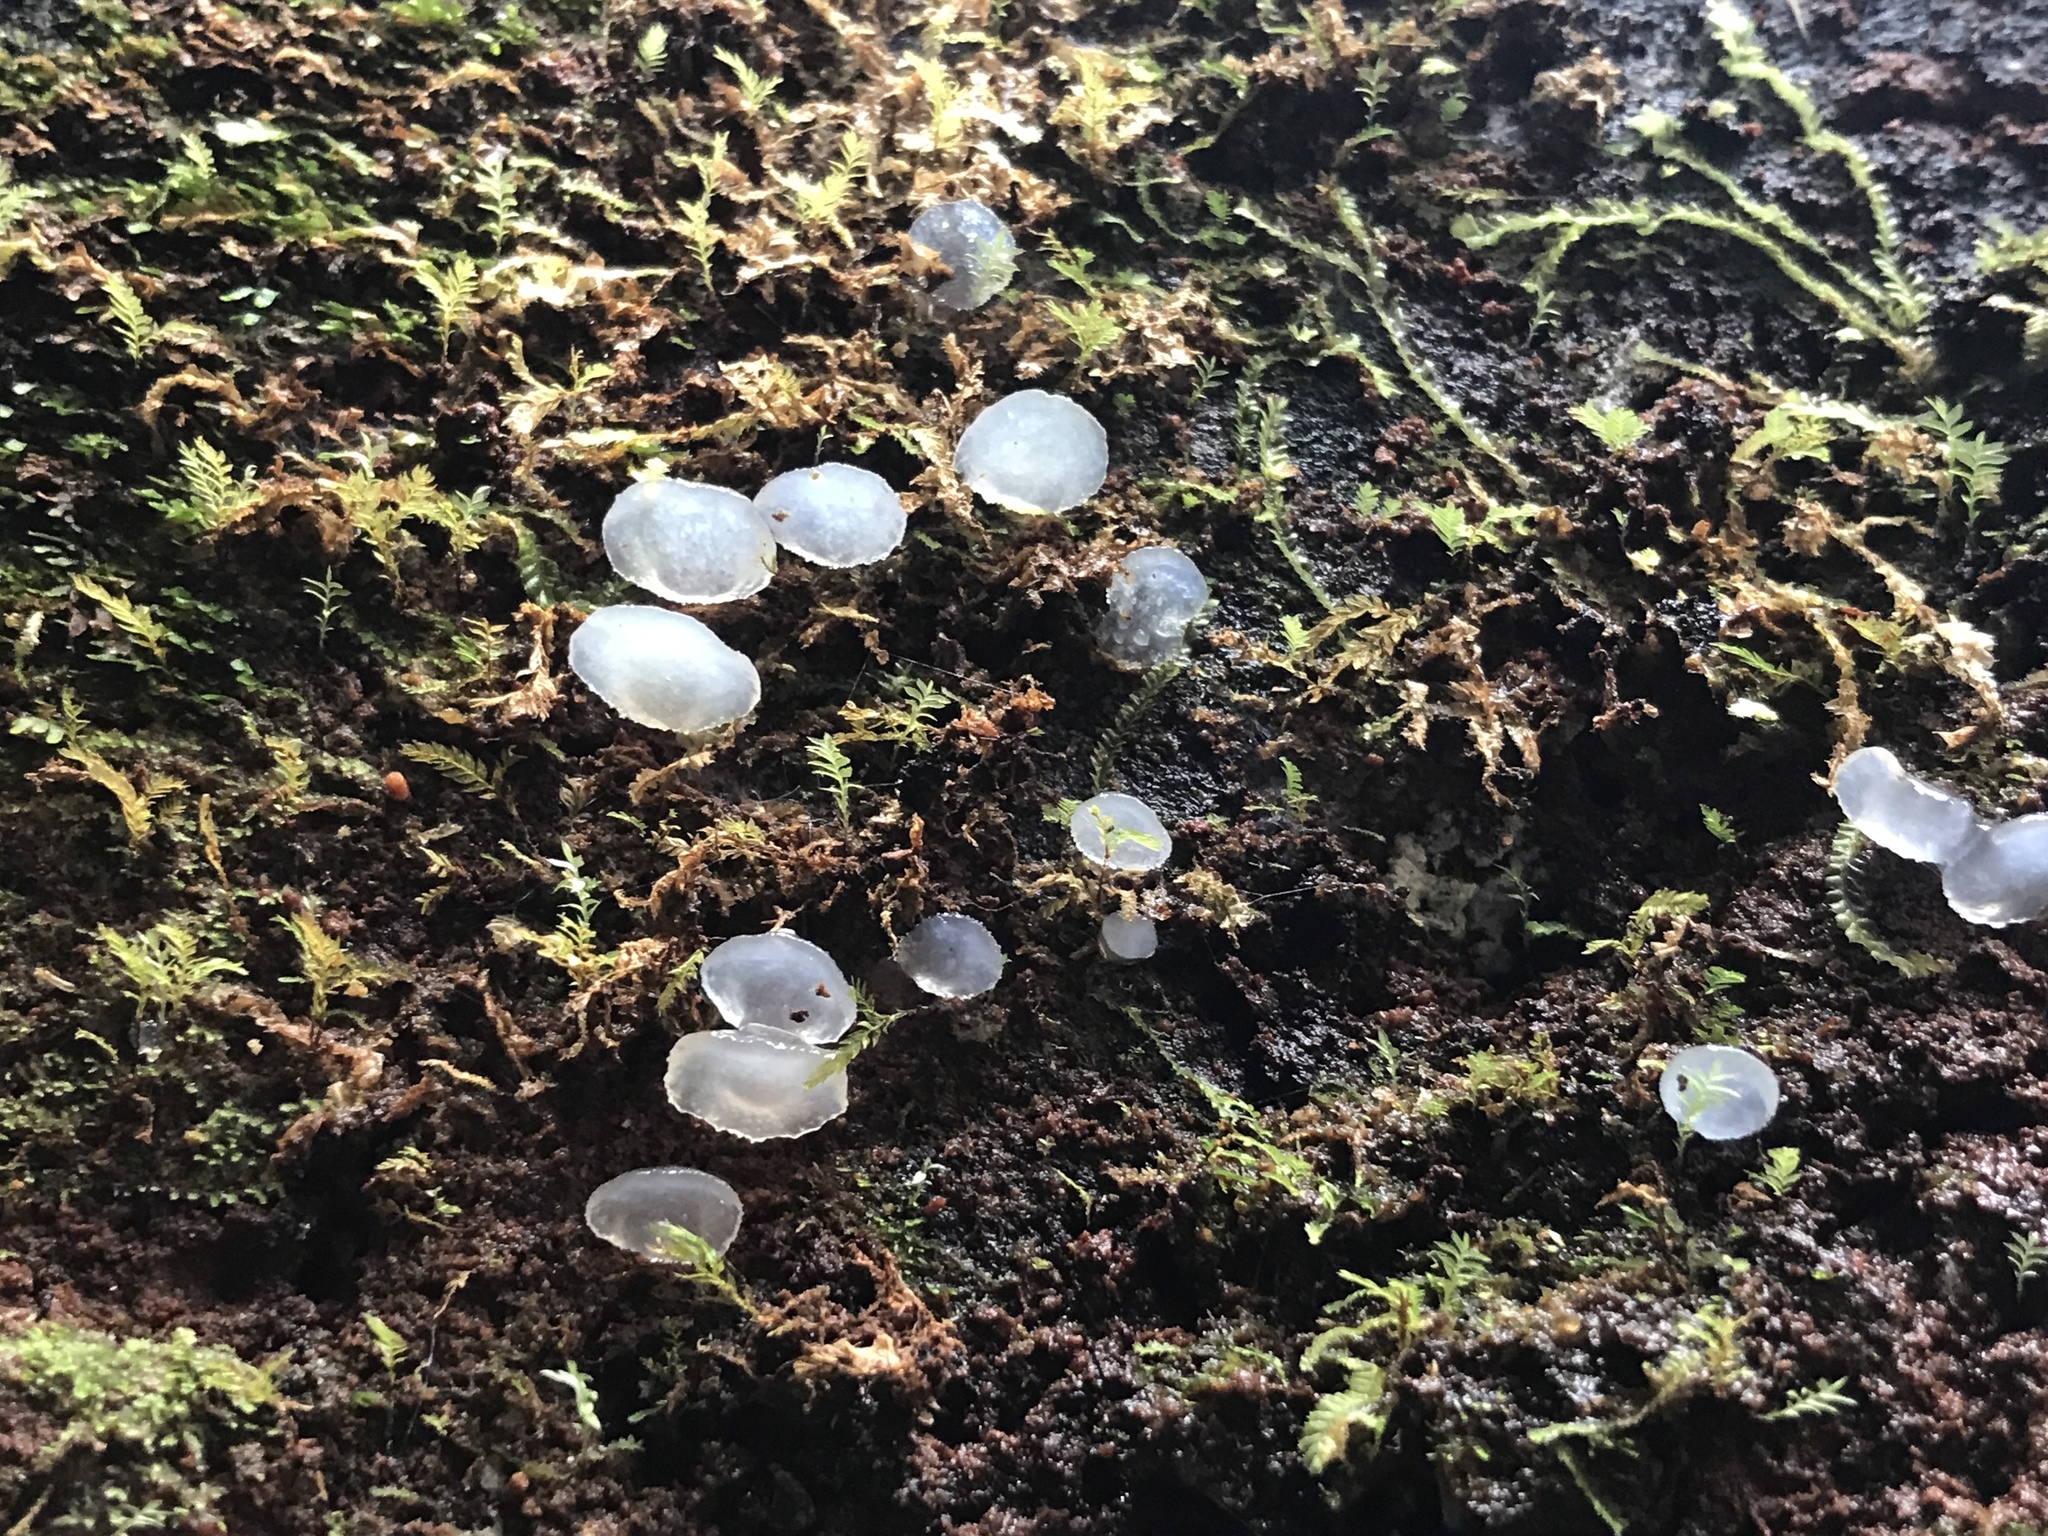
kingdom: Fungi
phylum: Basidiomycota
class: Agaricomycetes
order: Auriculariales
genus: Pseudohydnum
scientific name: Pseudohydnum orbiculare
